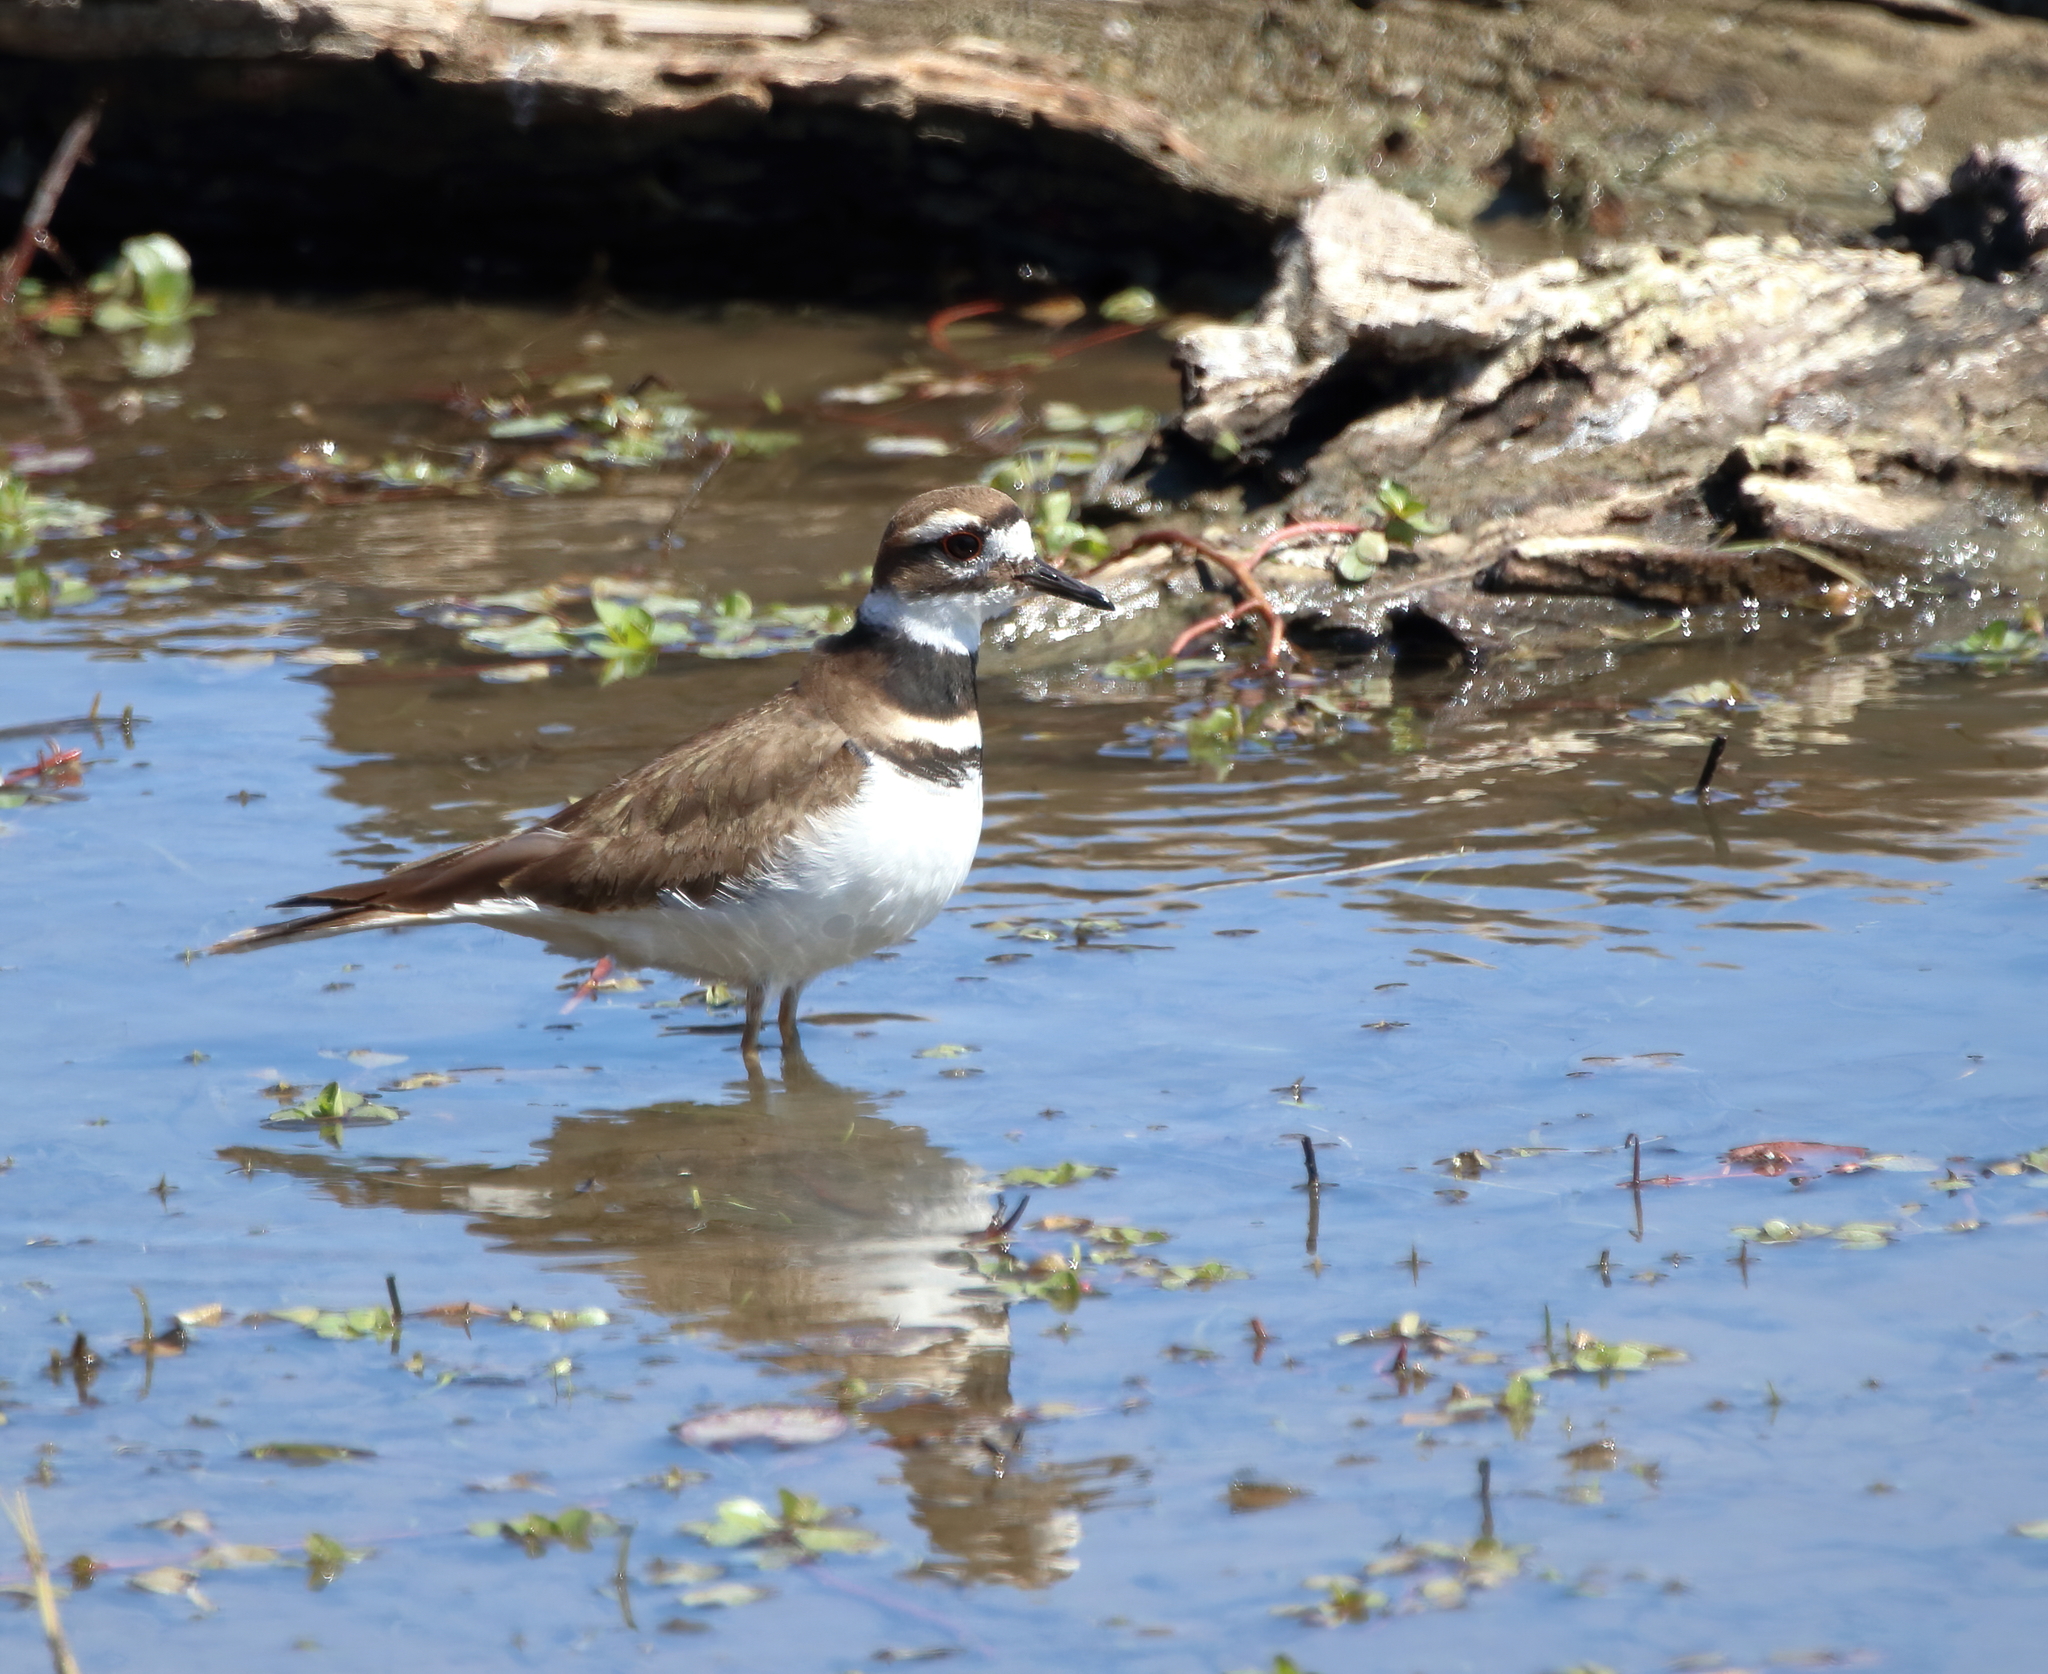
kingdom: Animalia
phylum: Chordata
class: Aves
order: Charadriiformes
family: Charadriidae
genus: Charadrius
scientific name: Charadrius vociferus
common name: Killdeer
